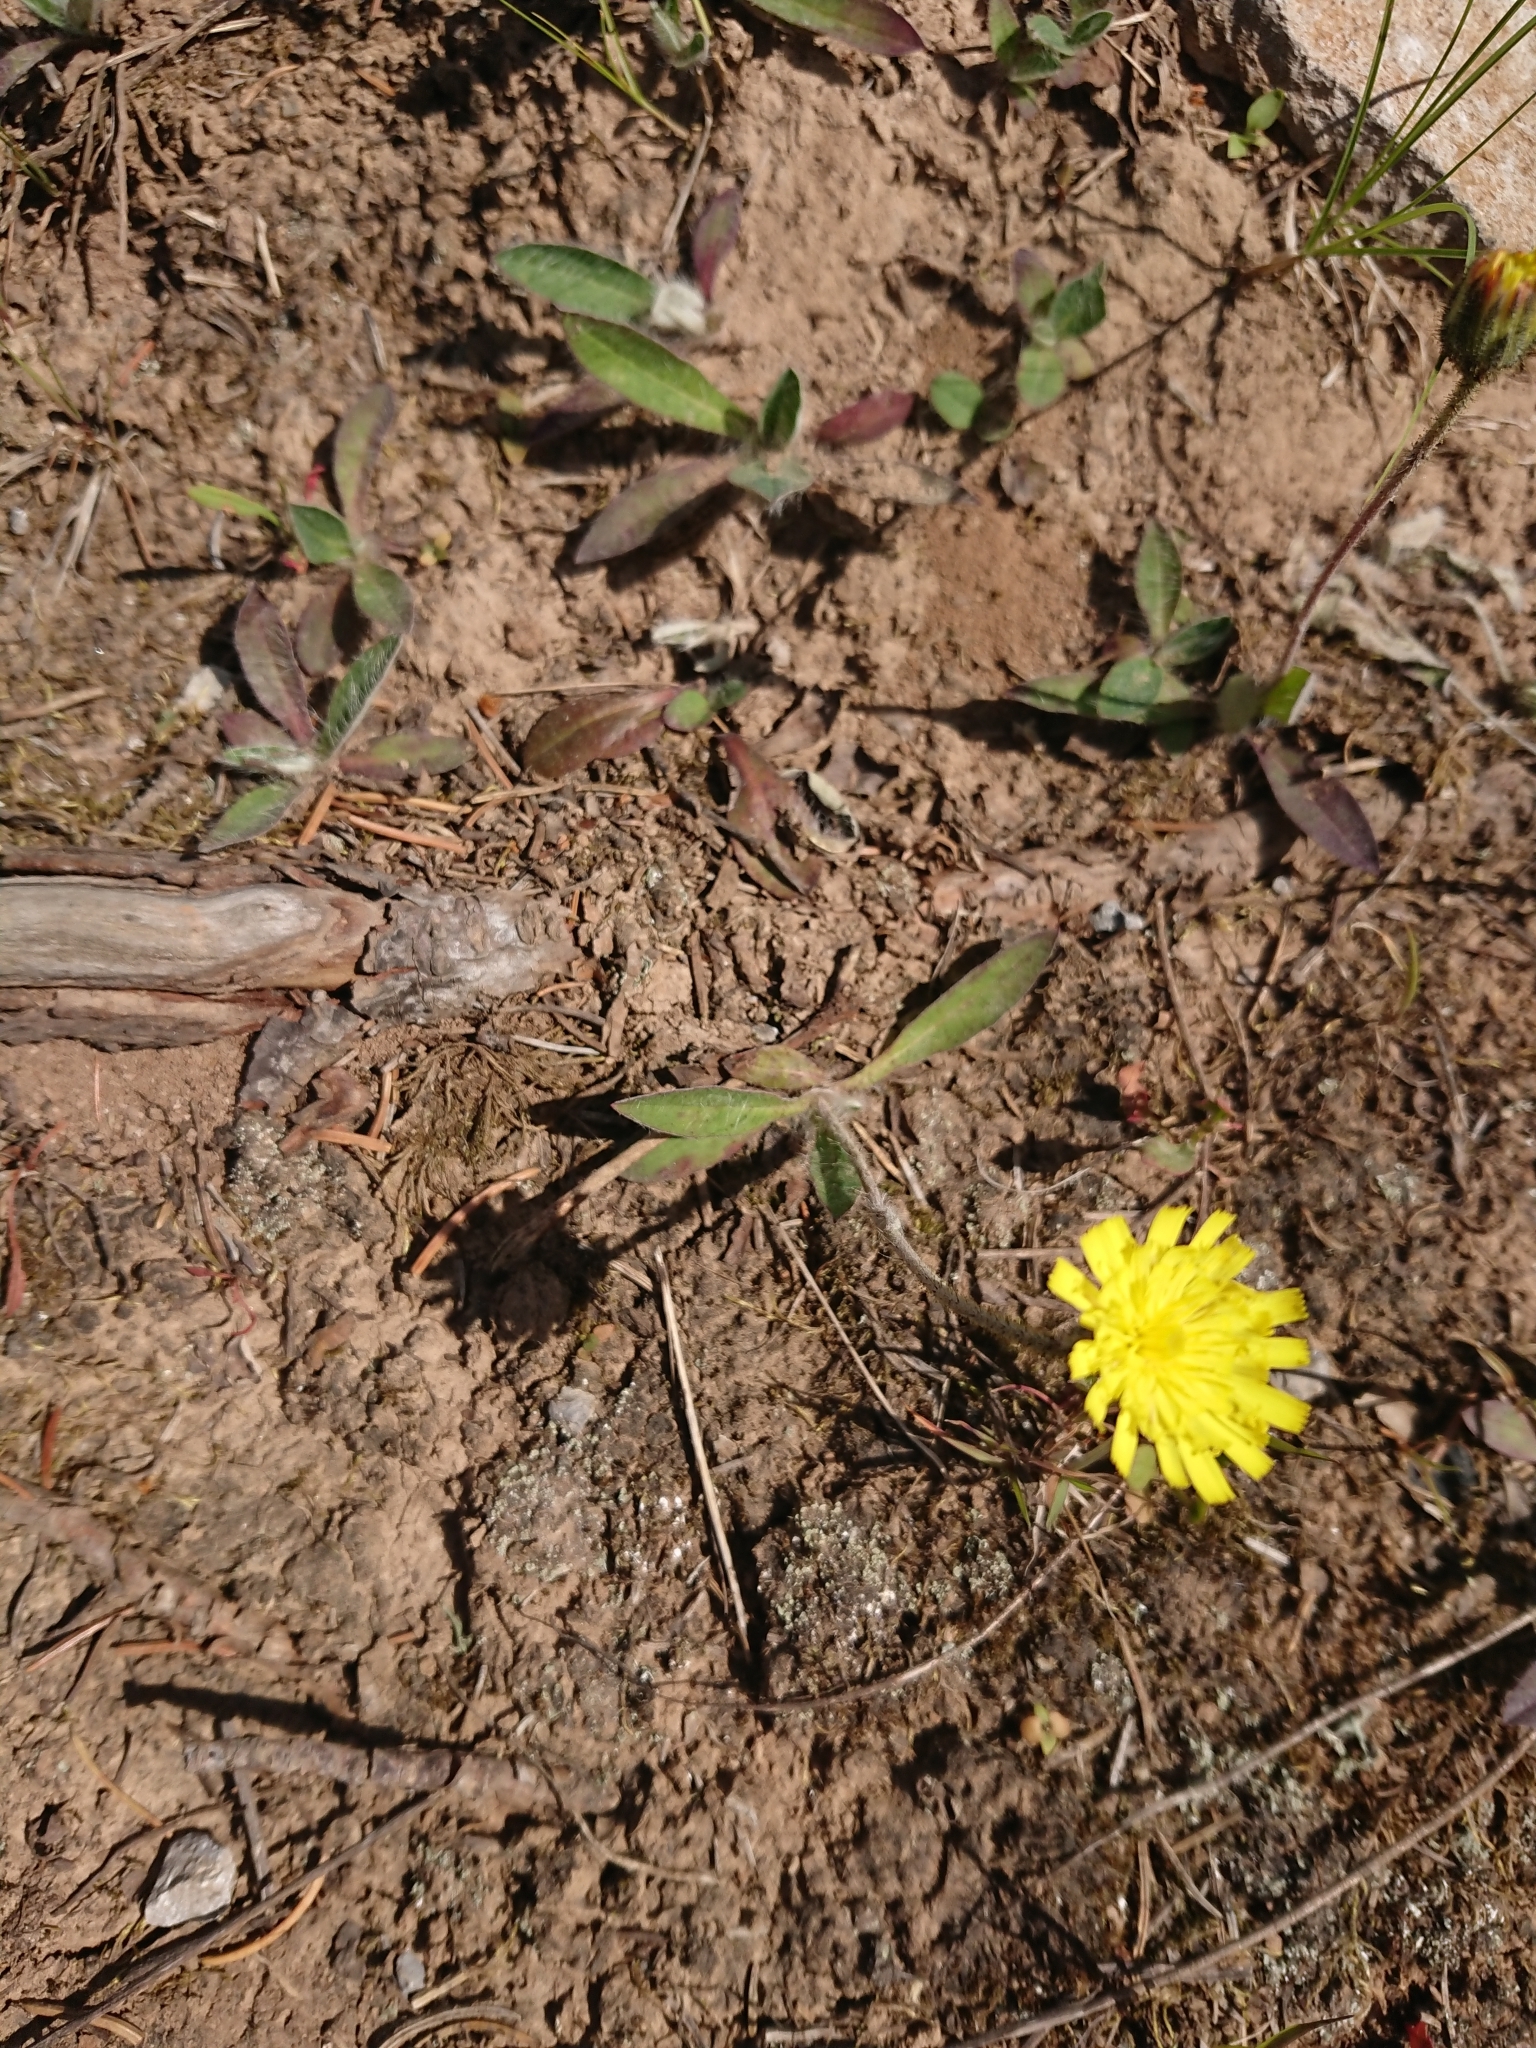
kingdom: Plantae
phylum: Tracheophyta
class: Magnoliopsida
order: Asterales
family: Asteraceae
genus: Pilosella
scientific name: Pilosella officinarum
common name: Mouse-ear hawkweed
